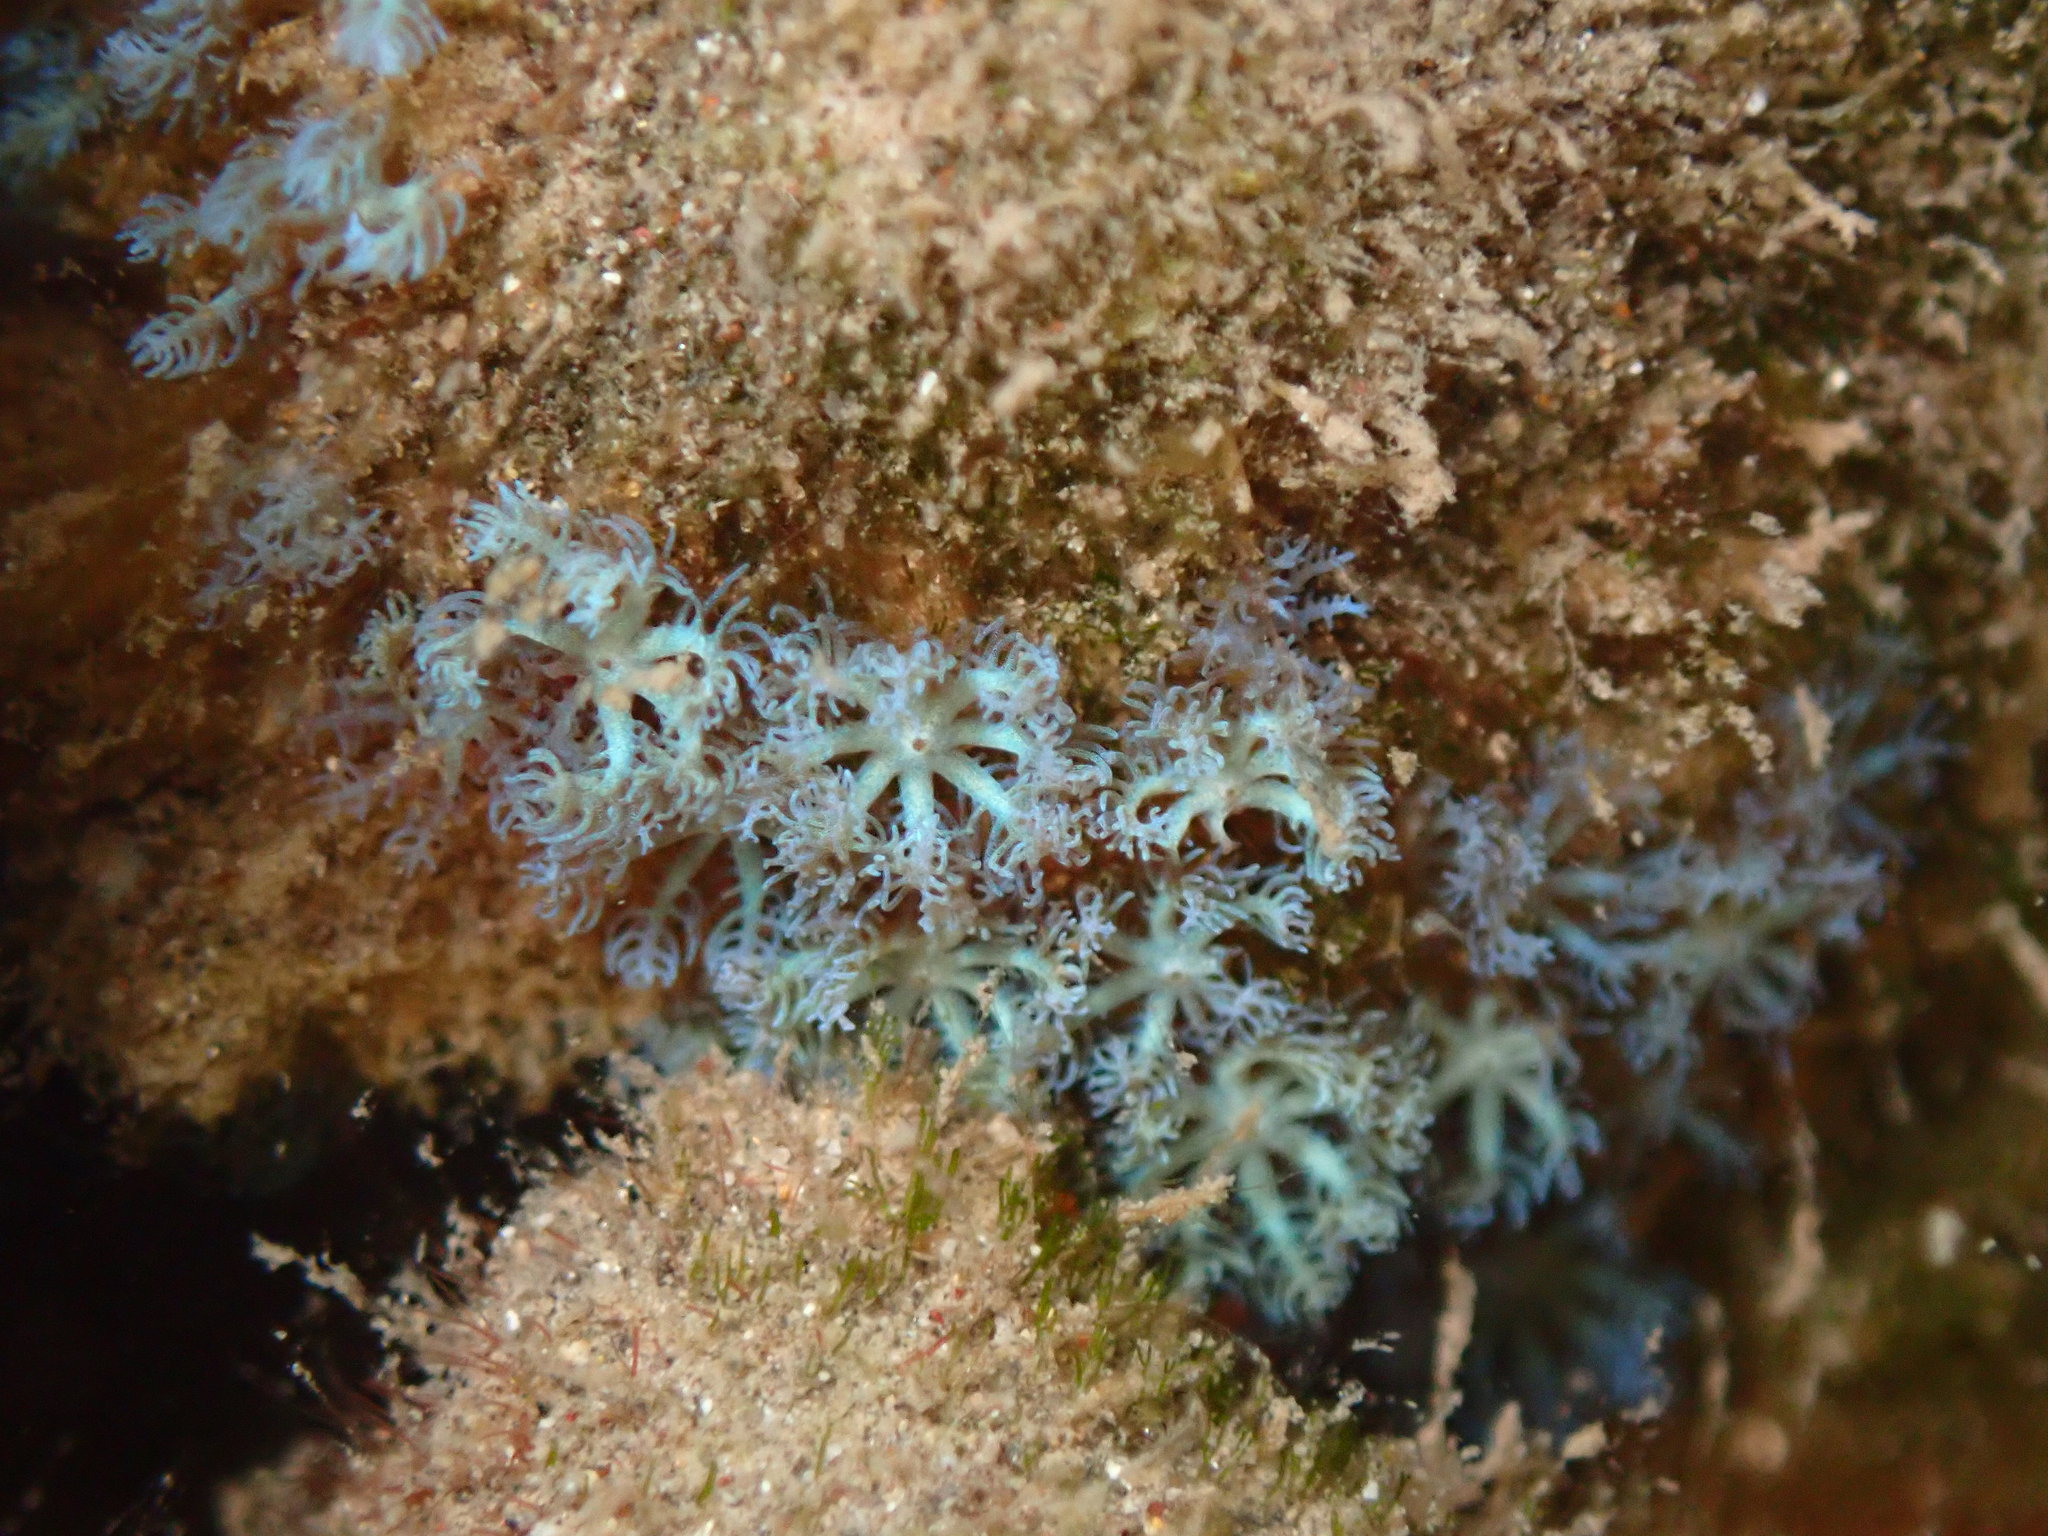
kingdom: Animalia
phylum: Cnidaria
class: Anthozoa
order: Malacalcyonacea
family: Xeniidae
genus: Sarcothelia
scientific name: Sarcothelia edmondsoni
